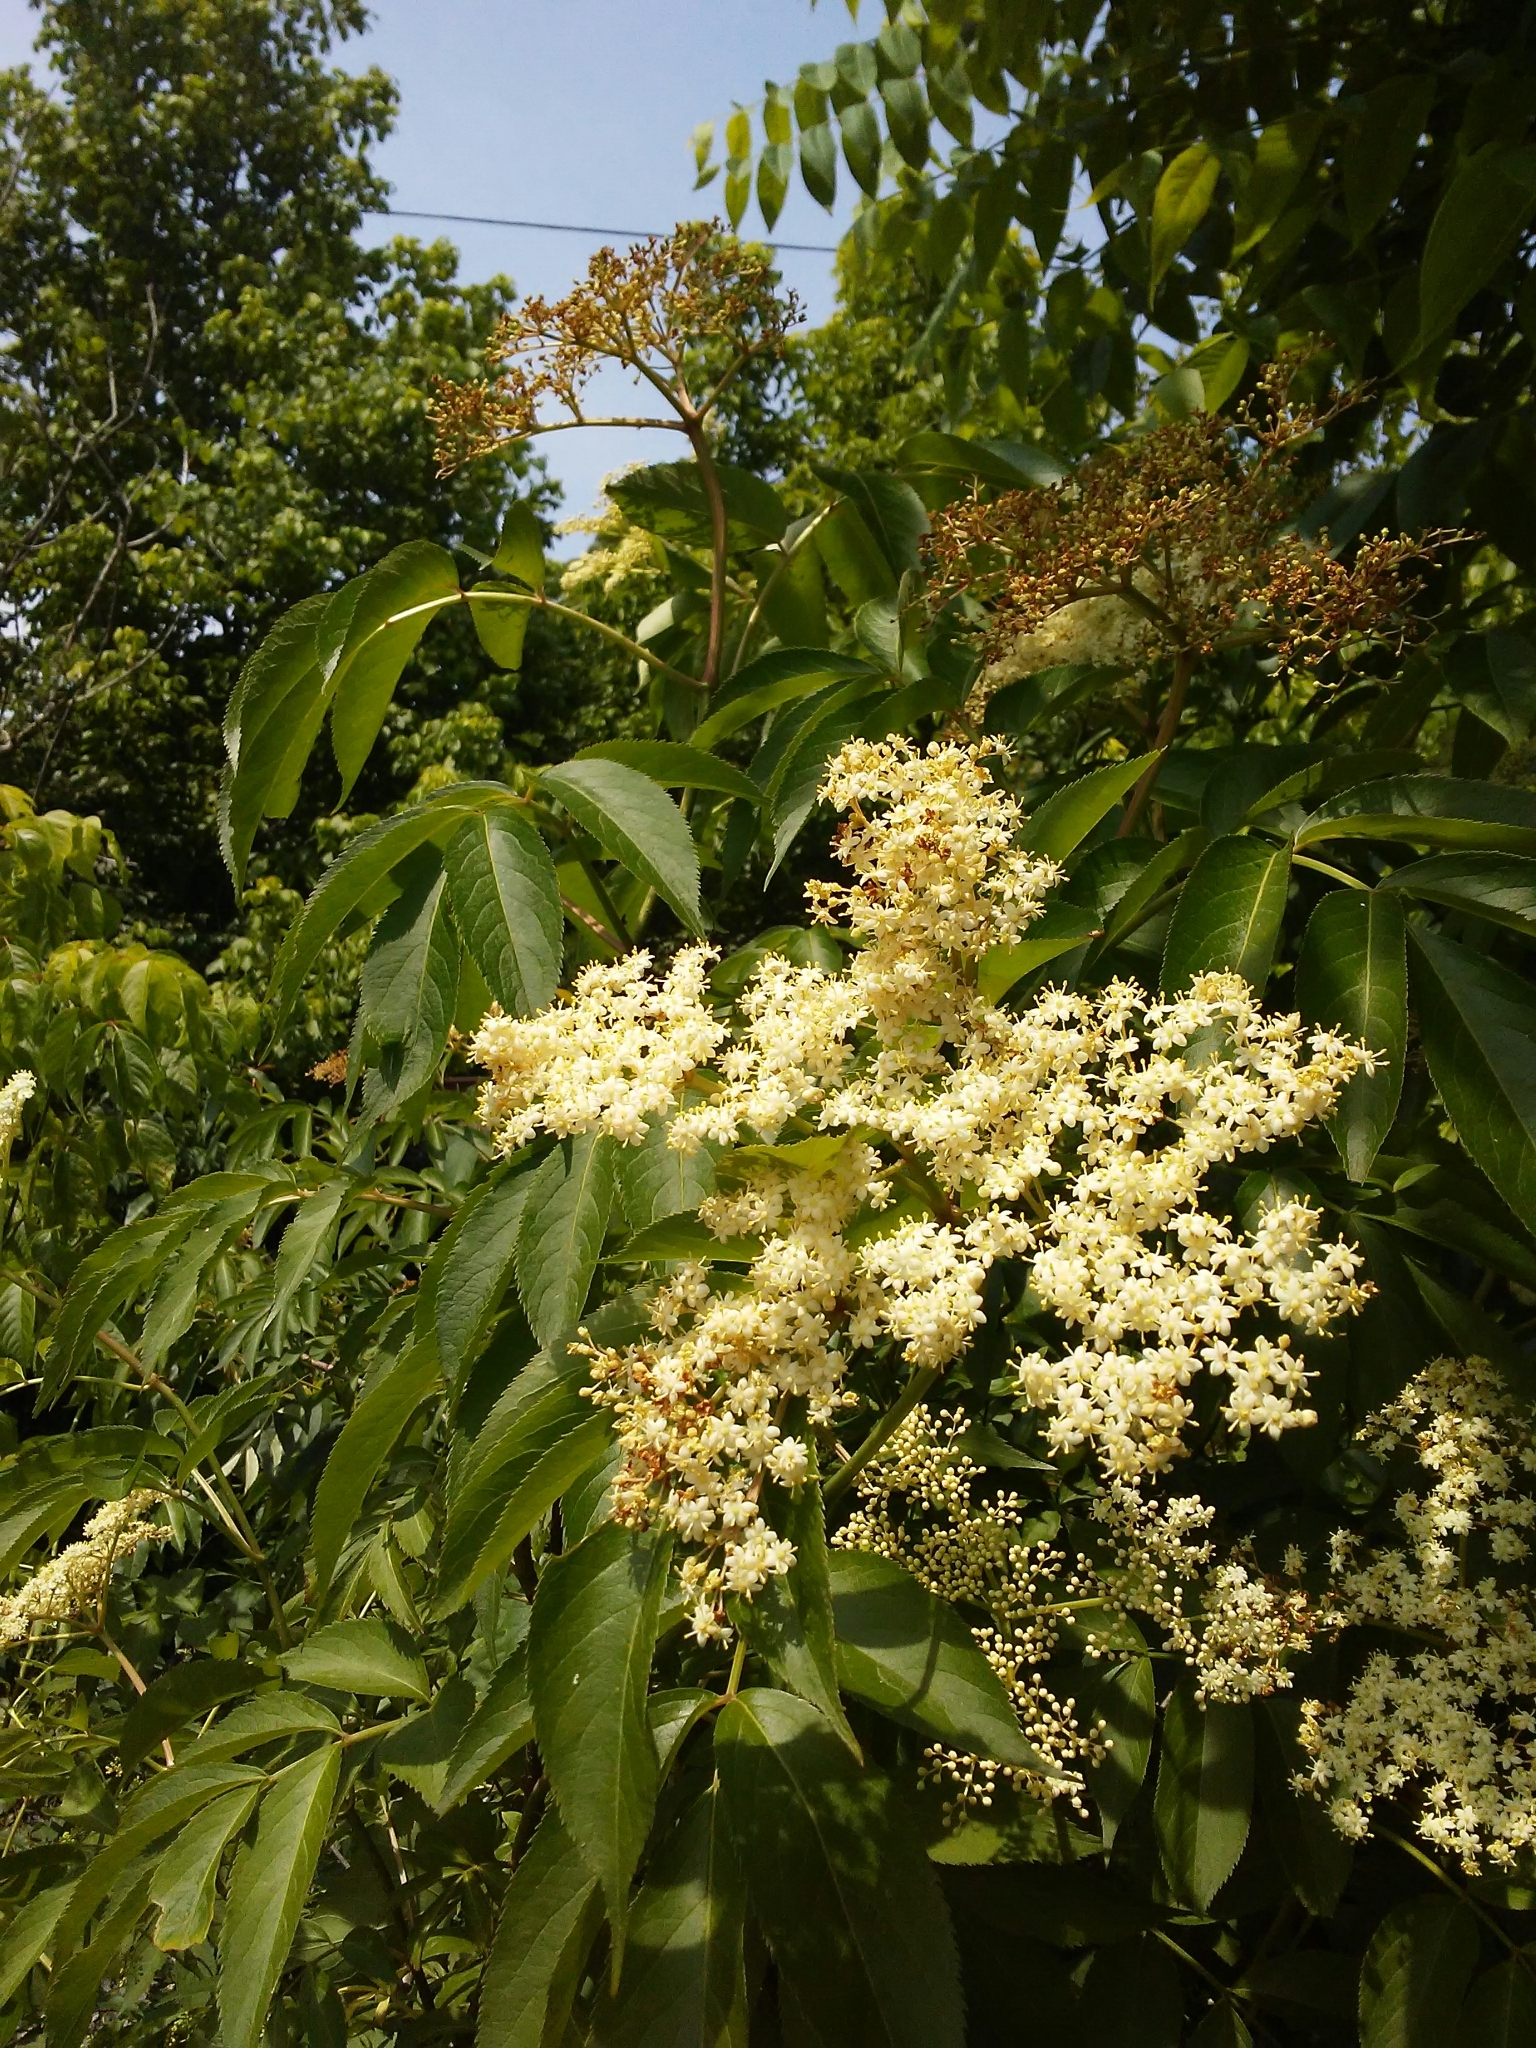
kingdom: Plantae
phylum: Tracheophyta
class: Magnoliopsida
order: Dipsacales
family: Viburnaceae
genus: Sambucus
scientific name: Sambucus canadensis
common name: American elder
